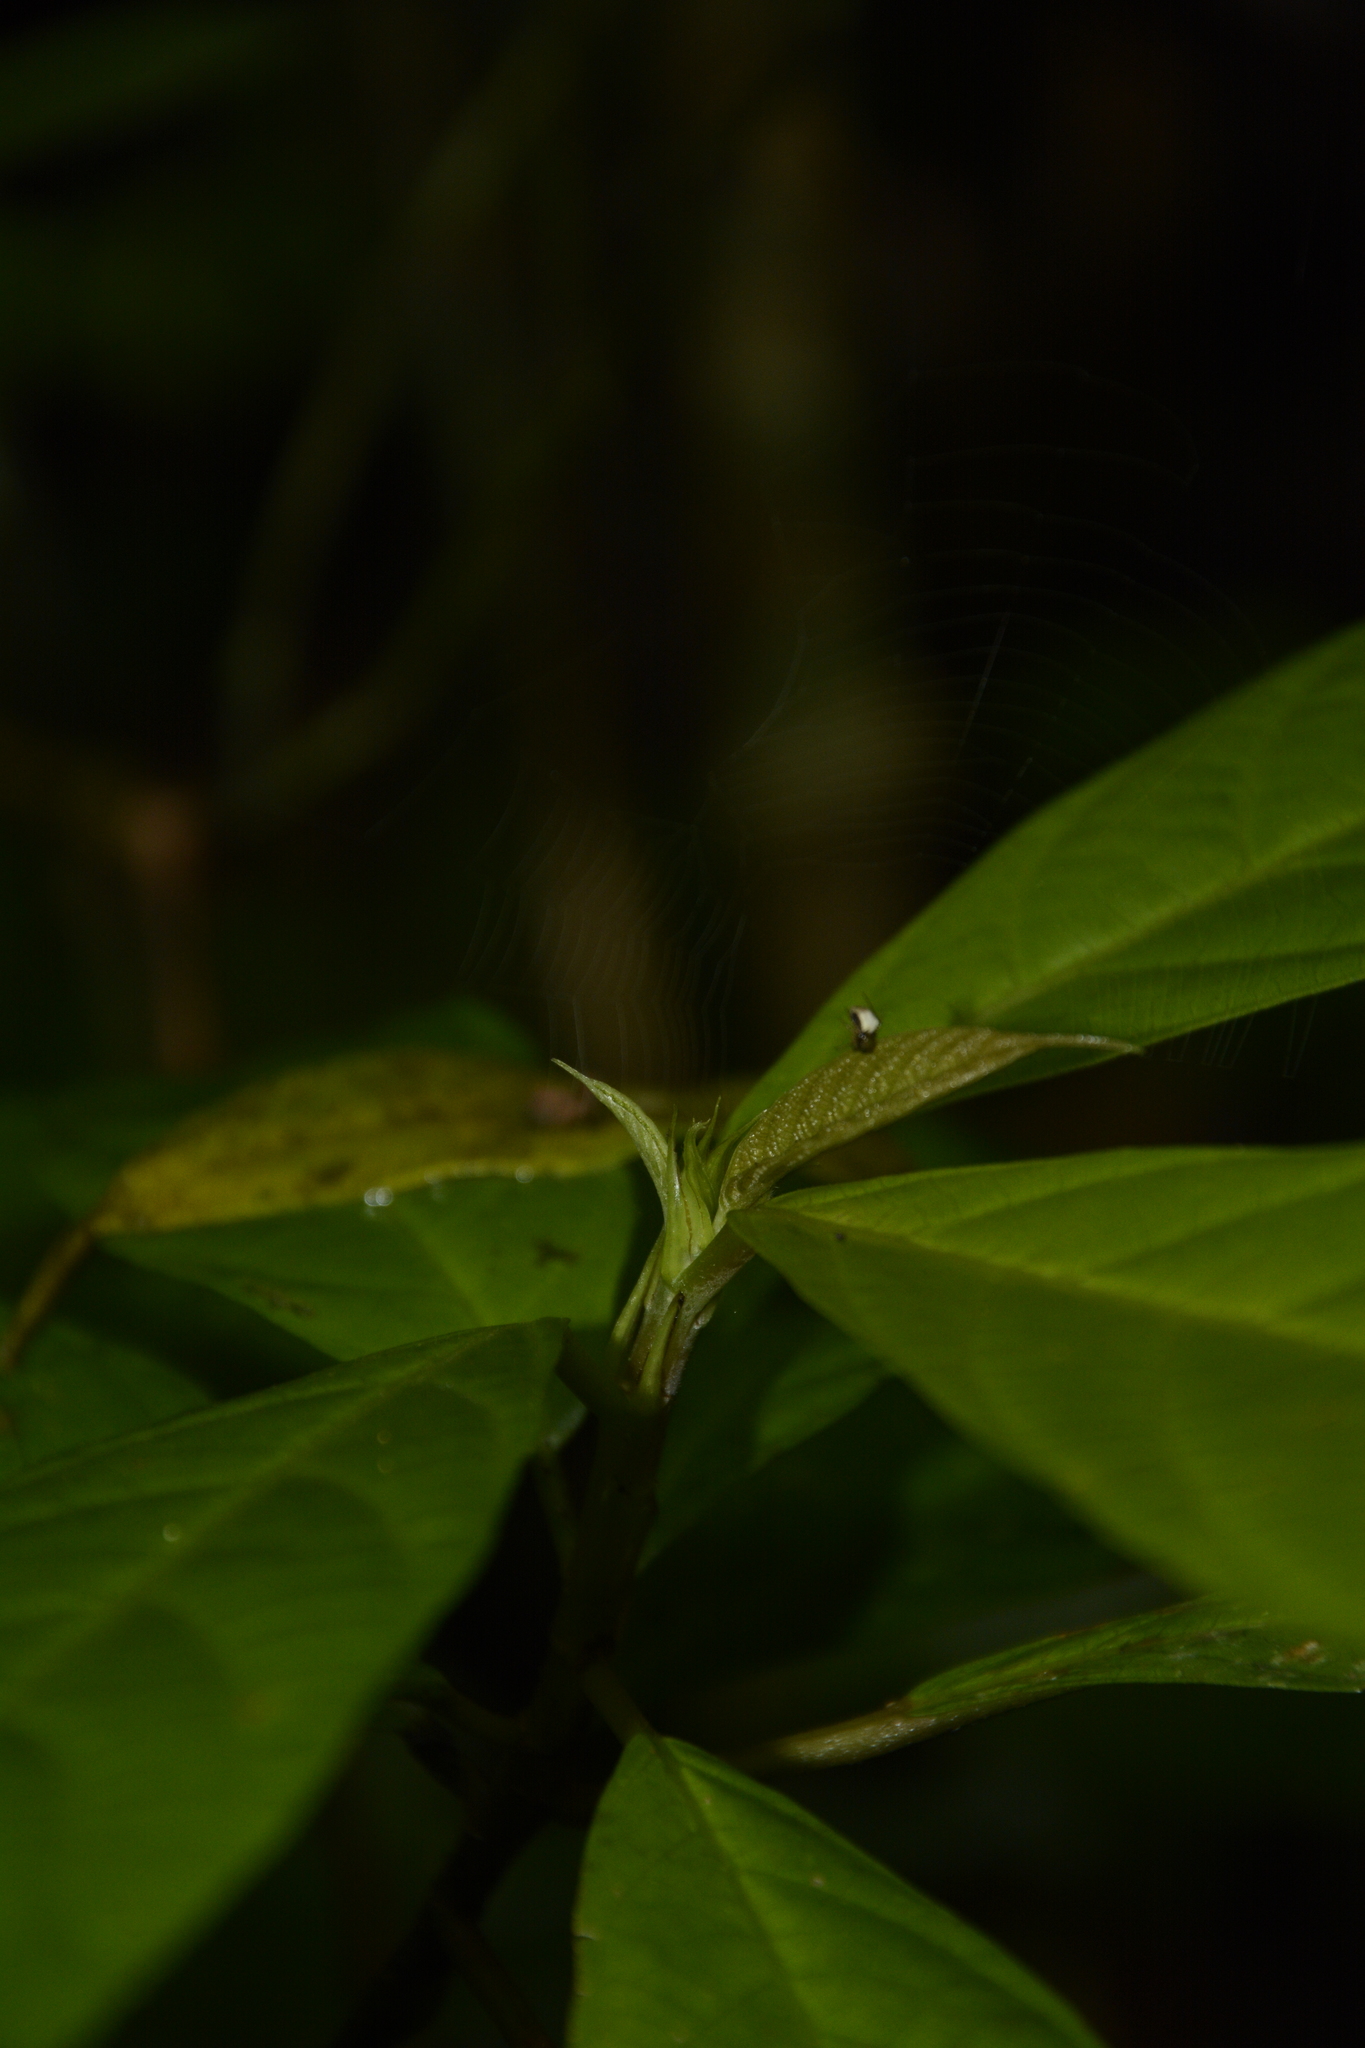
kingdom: Plantae
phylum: Tracheophyta
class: Magnoliopsida
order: Rosales
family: Urticaceae
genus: Oreocnide
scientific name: Oreocnide integrifolia
